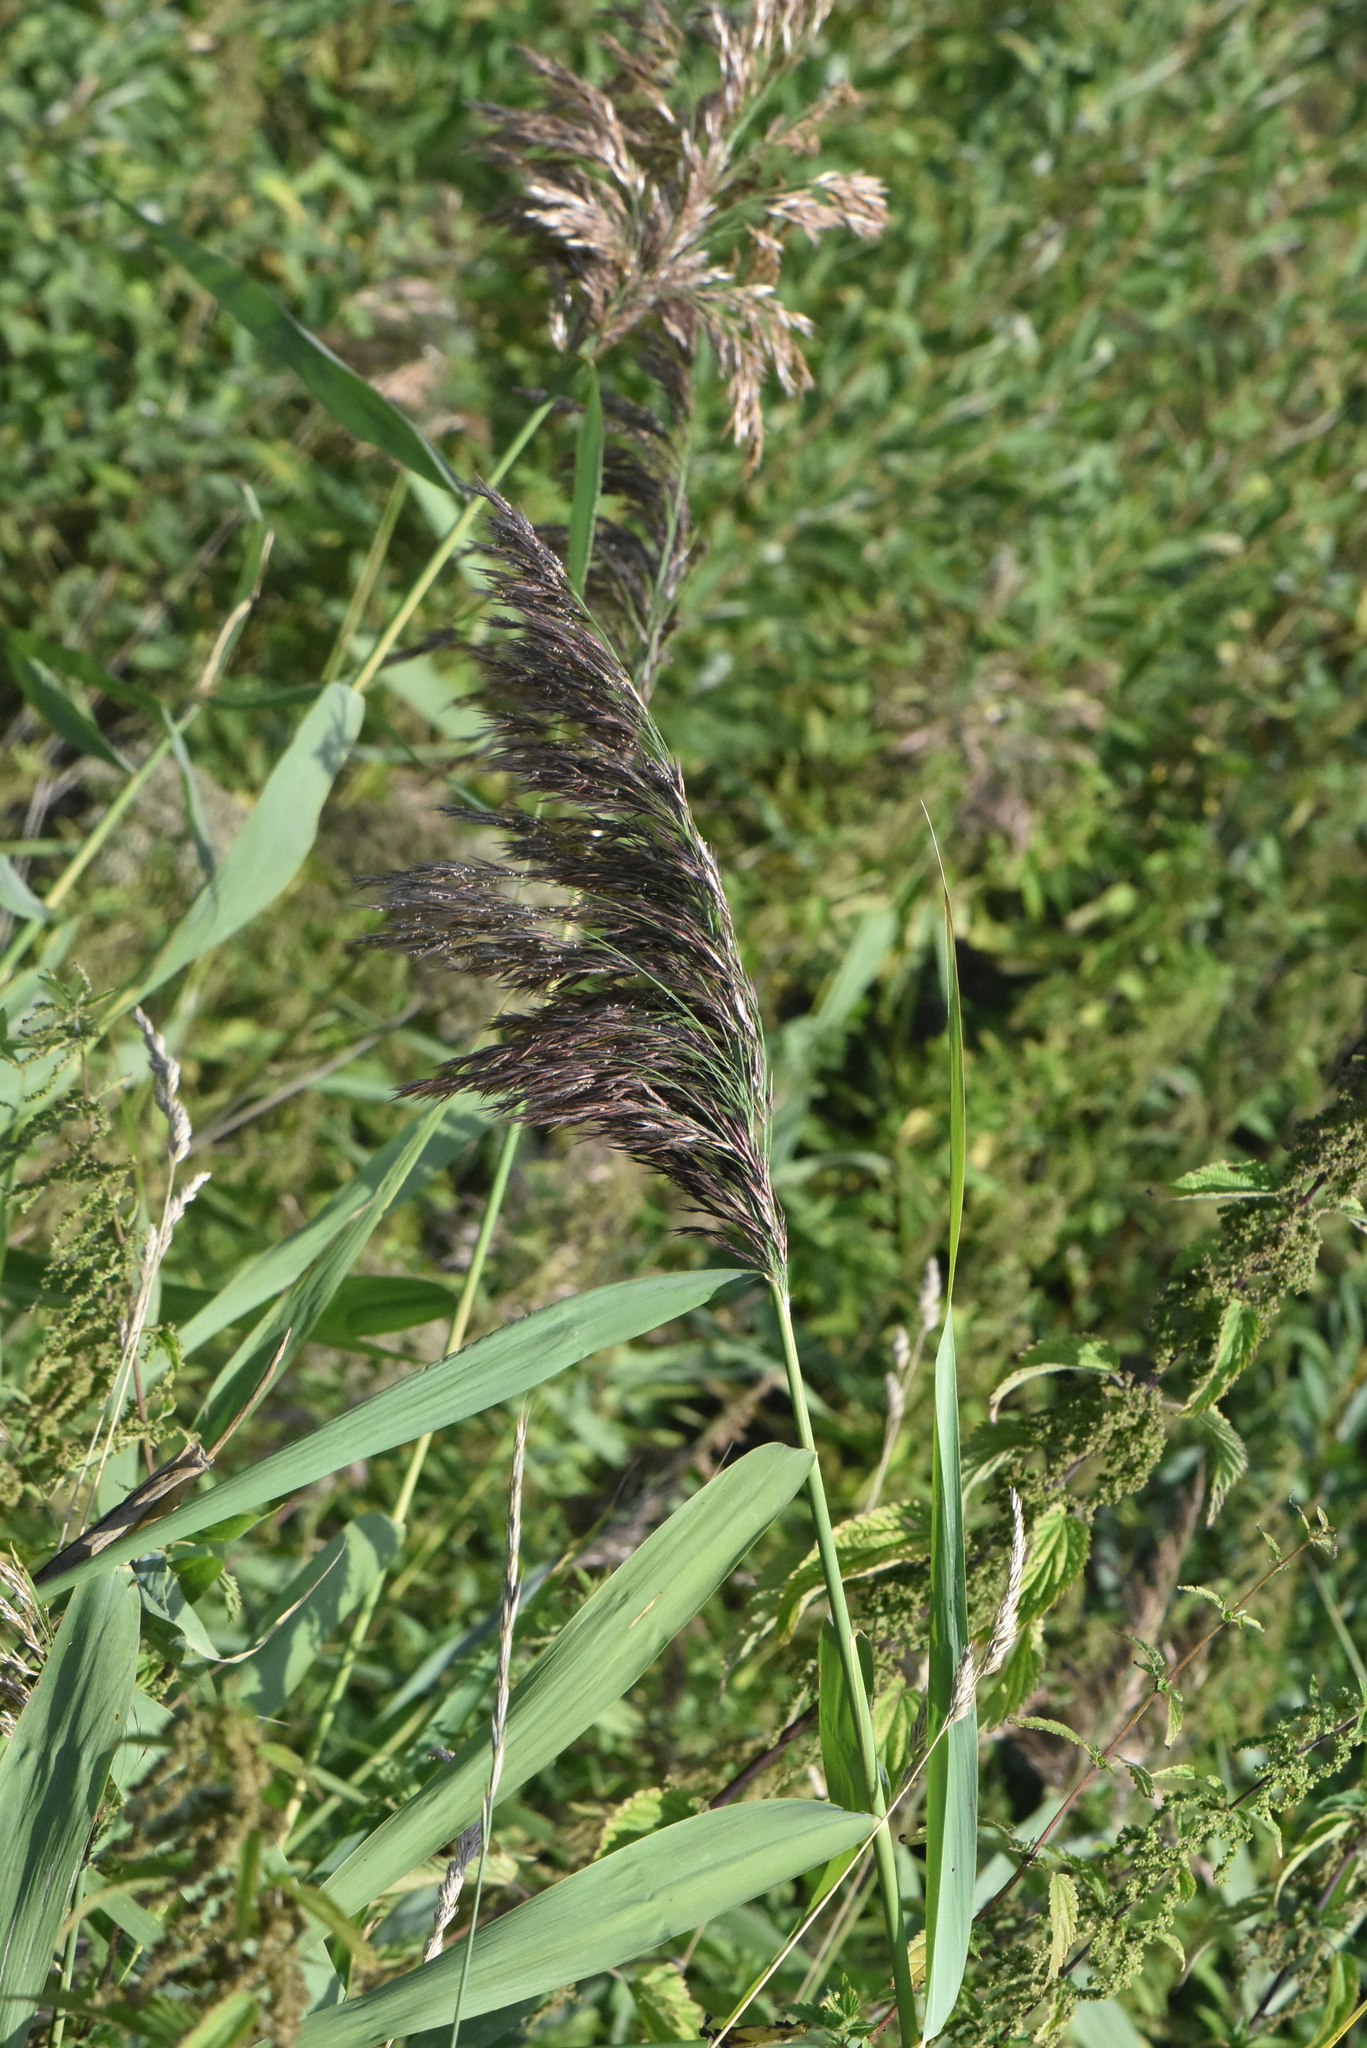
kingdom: Plantae
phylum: Tracheophyta
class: Liliopsida
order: Poales
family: Poaceae
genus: Phragmites
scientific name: Phragmites australis
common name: Common reed
